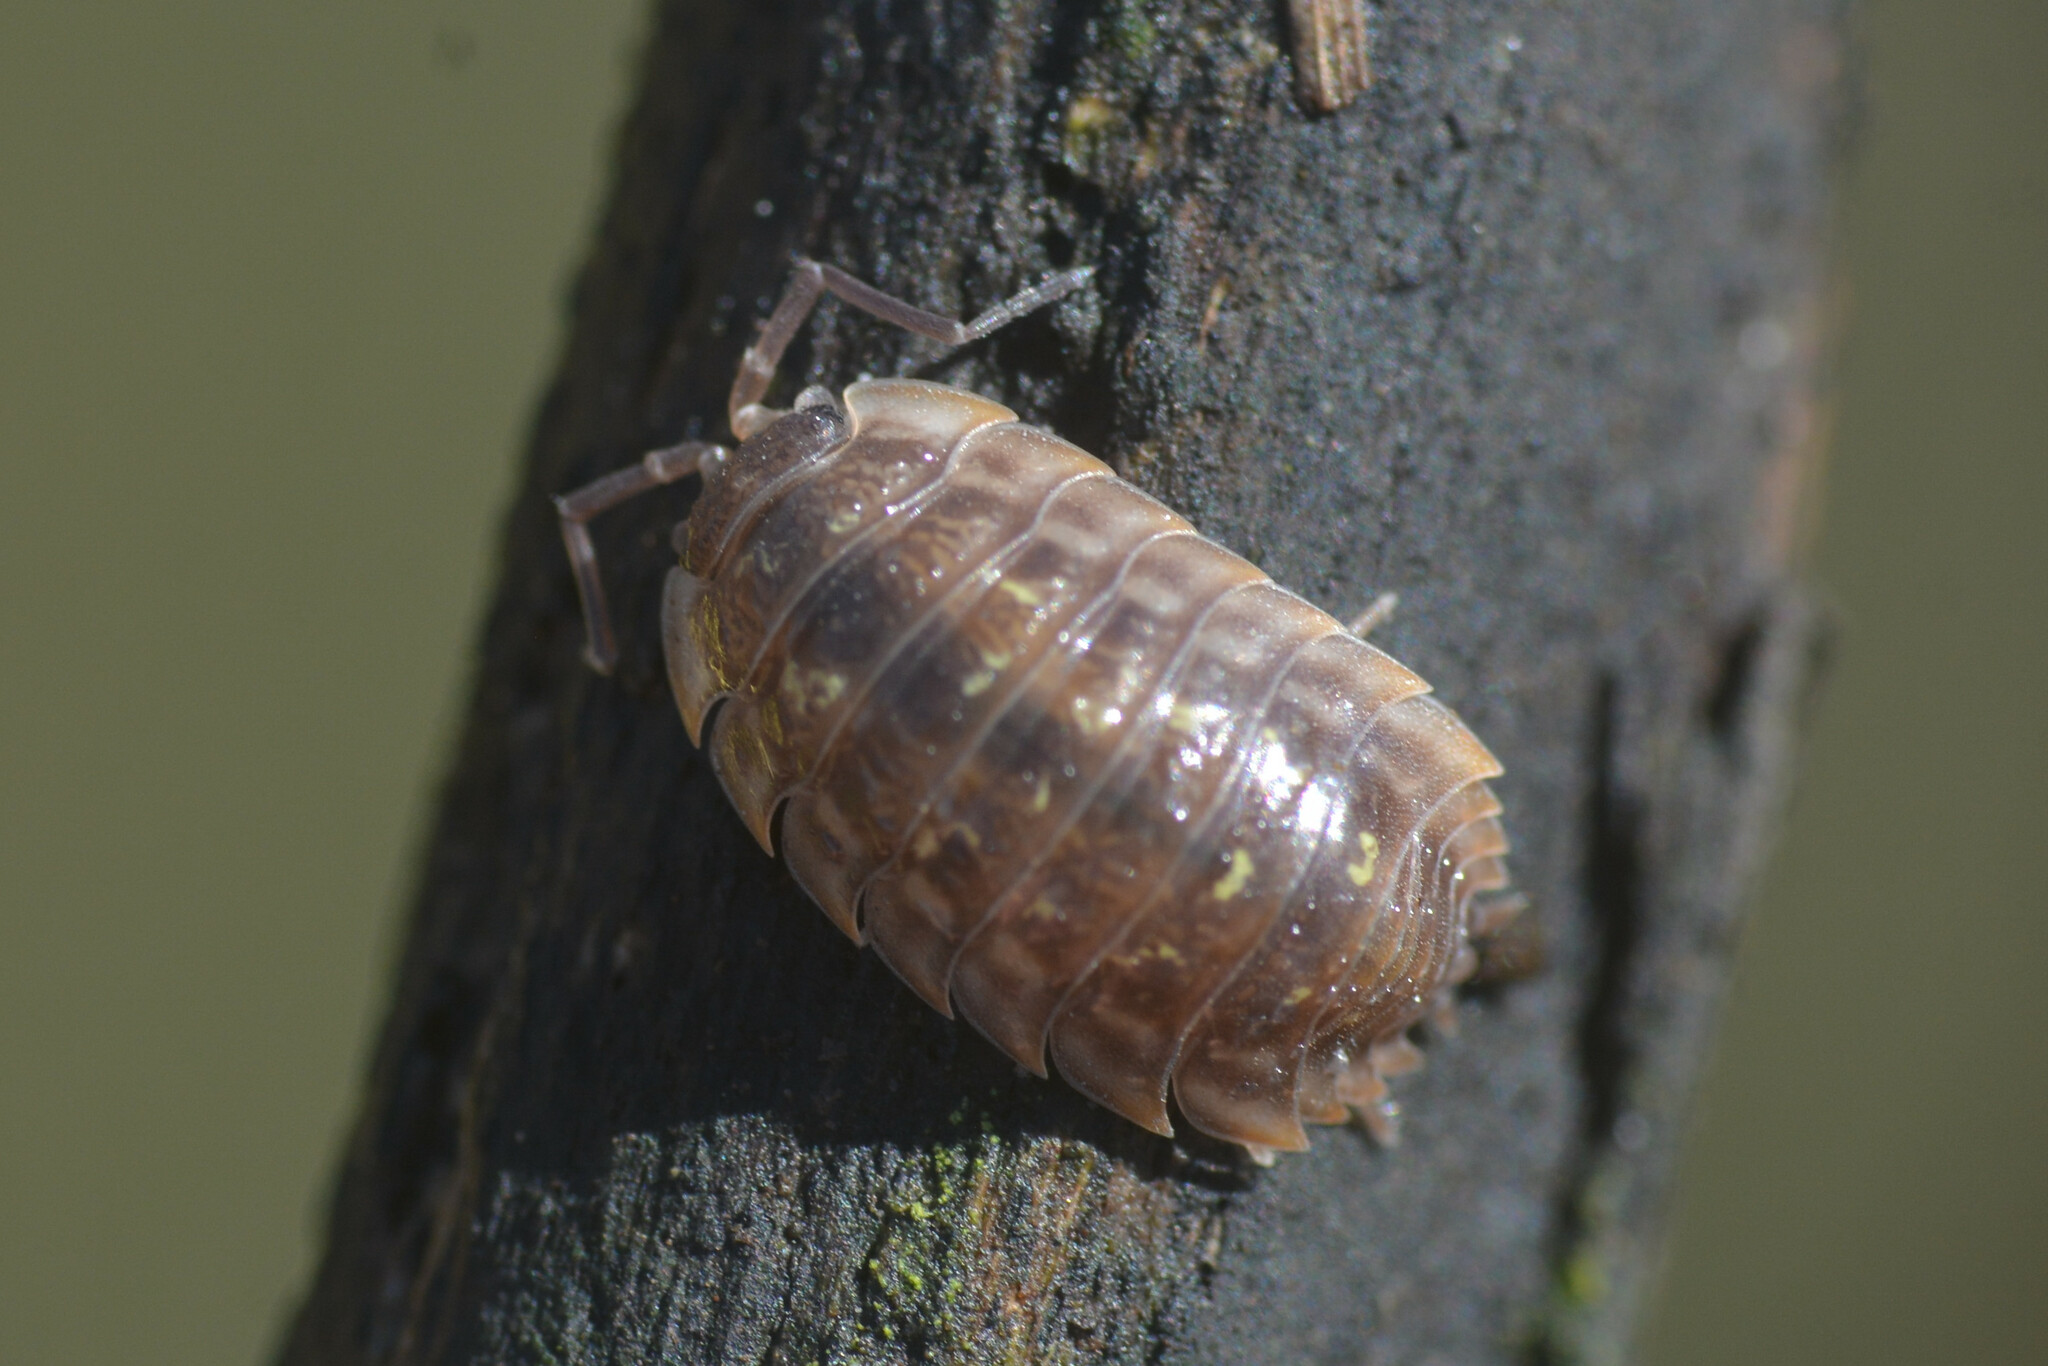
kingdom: Animalia
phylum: Arthropoda
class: Malacostraca
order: Isopoda
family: Oniscidae
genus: Oniscus
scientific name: Oniscus asellus
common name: Common shiny woodlouse
